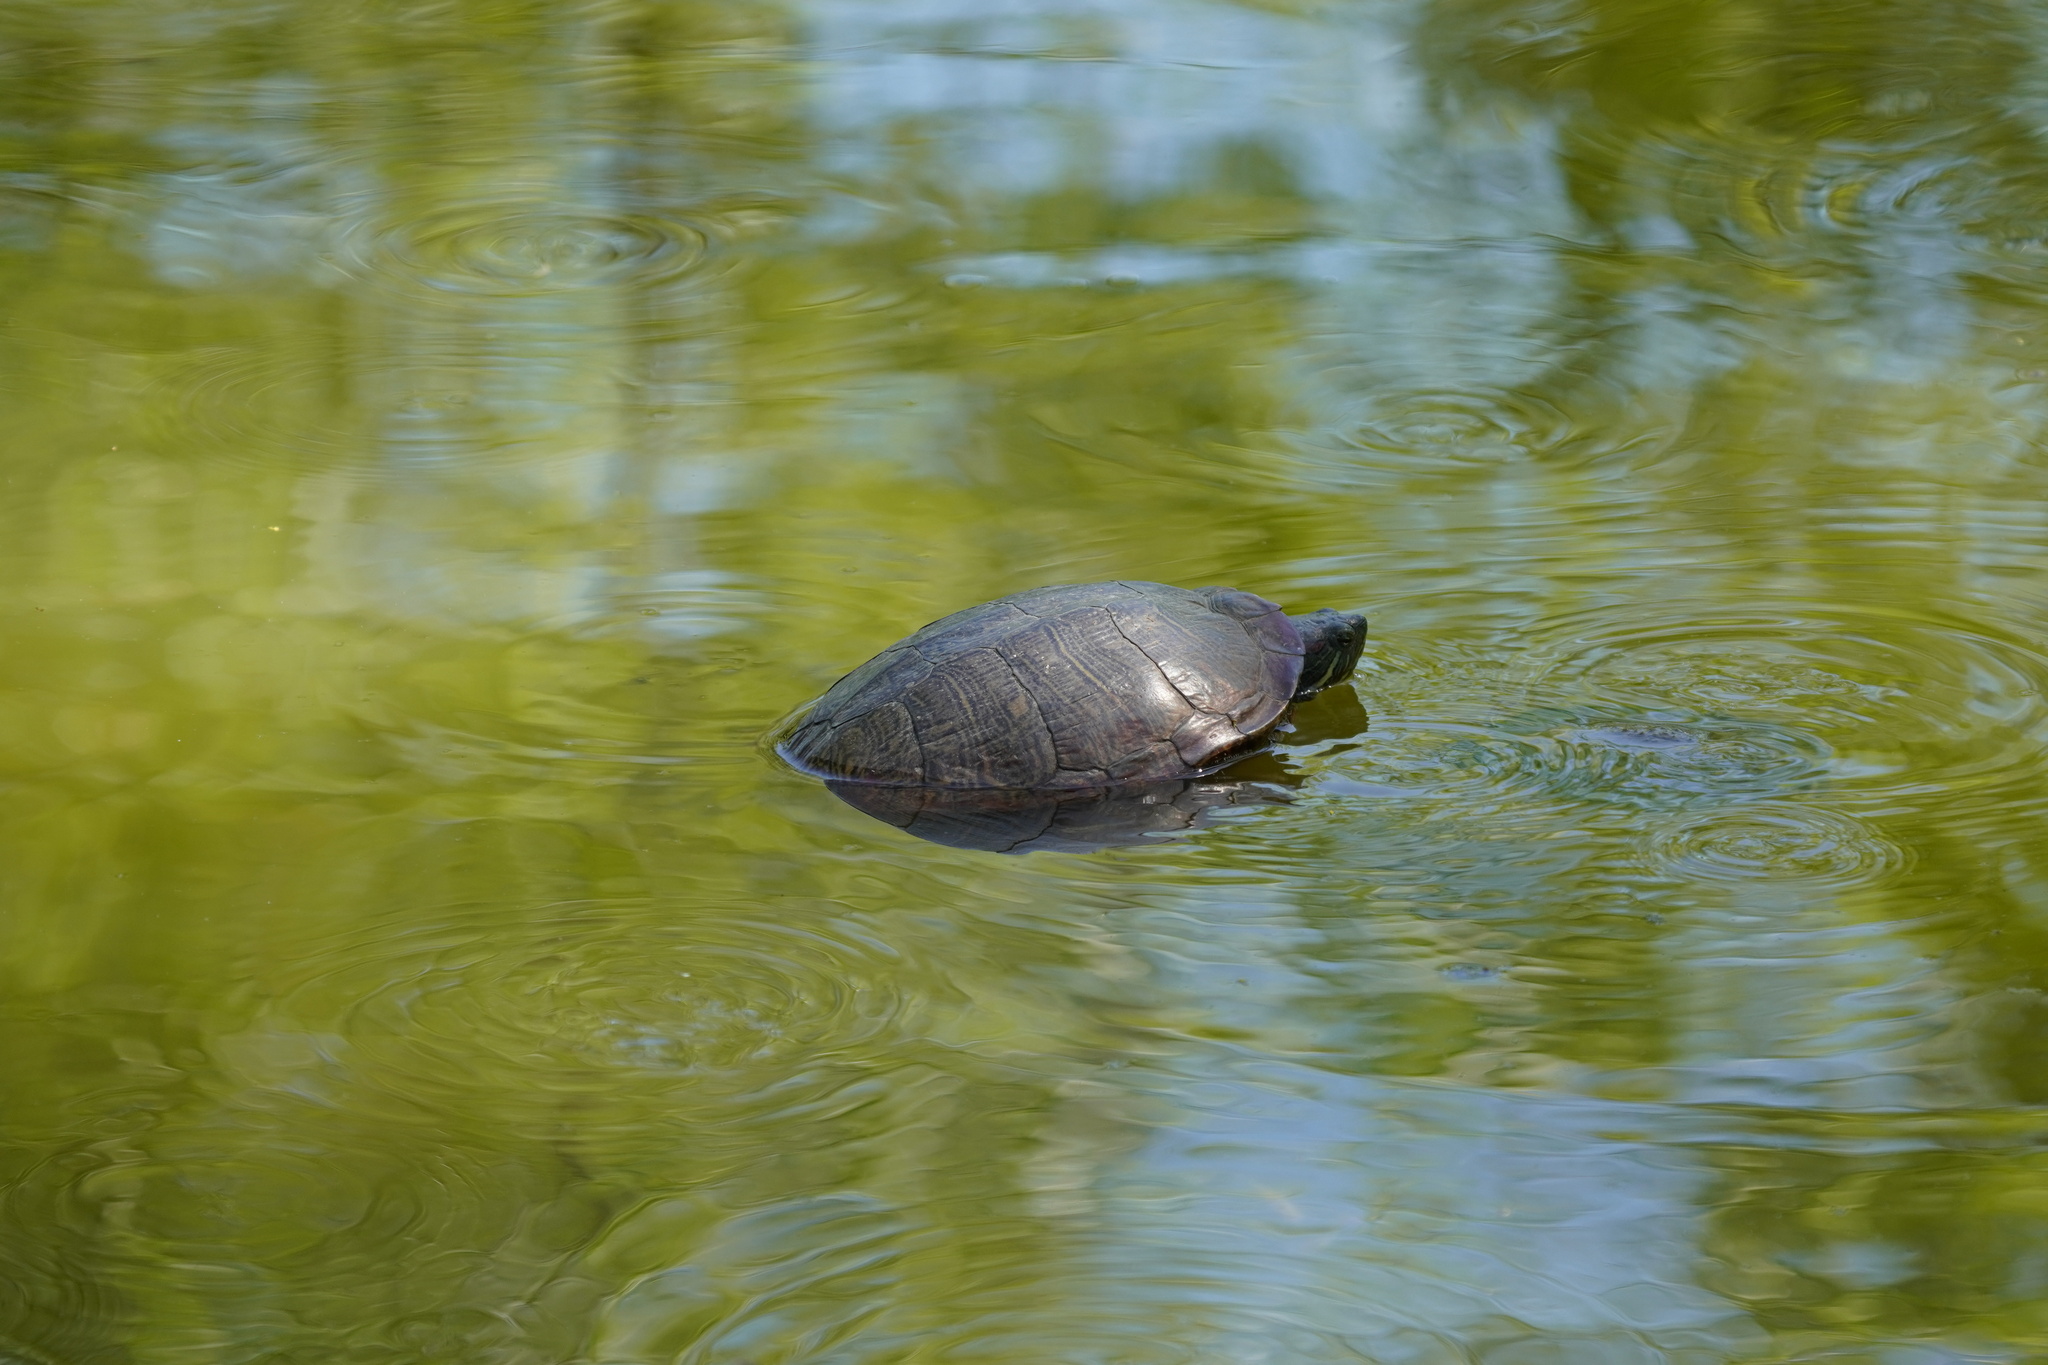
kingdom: Animalia
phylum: Chordata
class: Testudines
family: Emydidae
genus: Trachemys
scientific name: Trachemys scripta
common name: Slider
